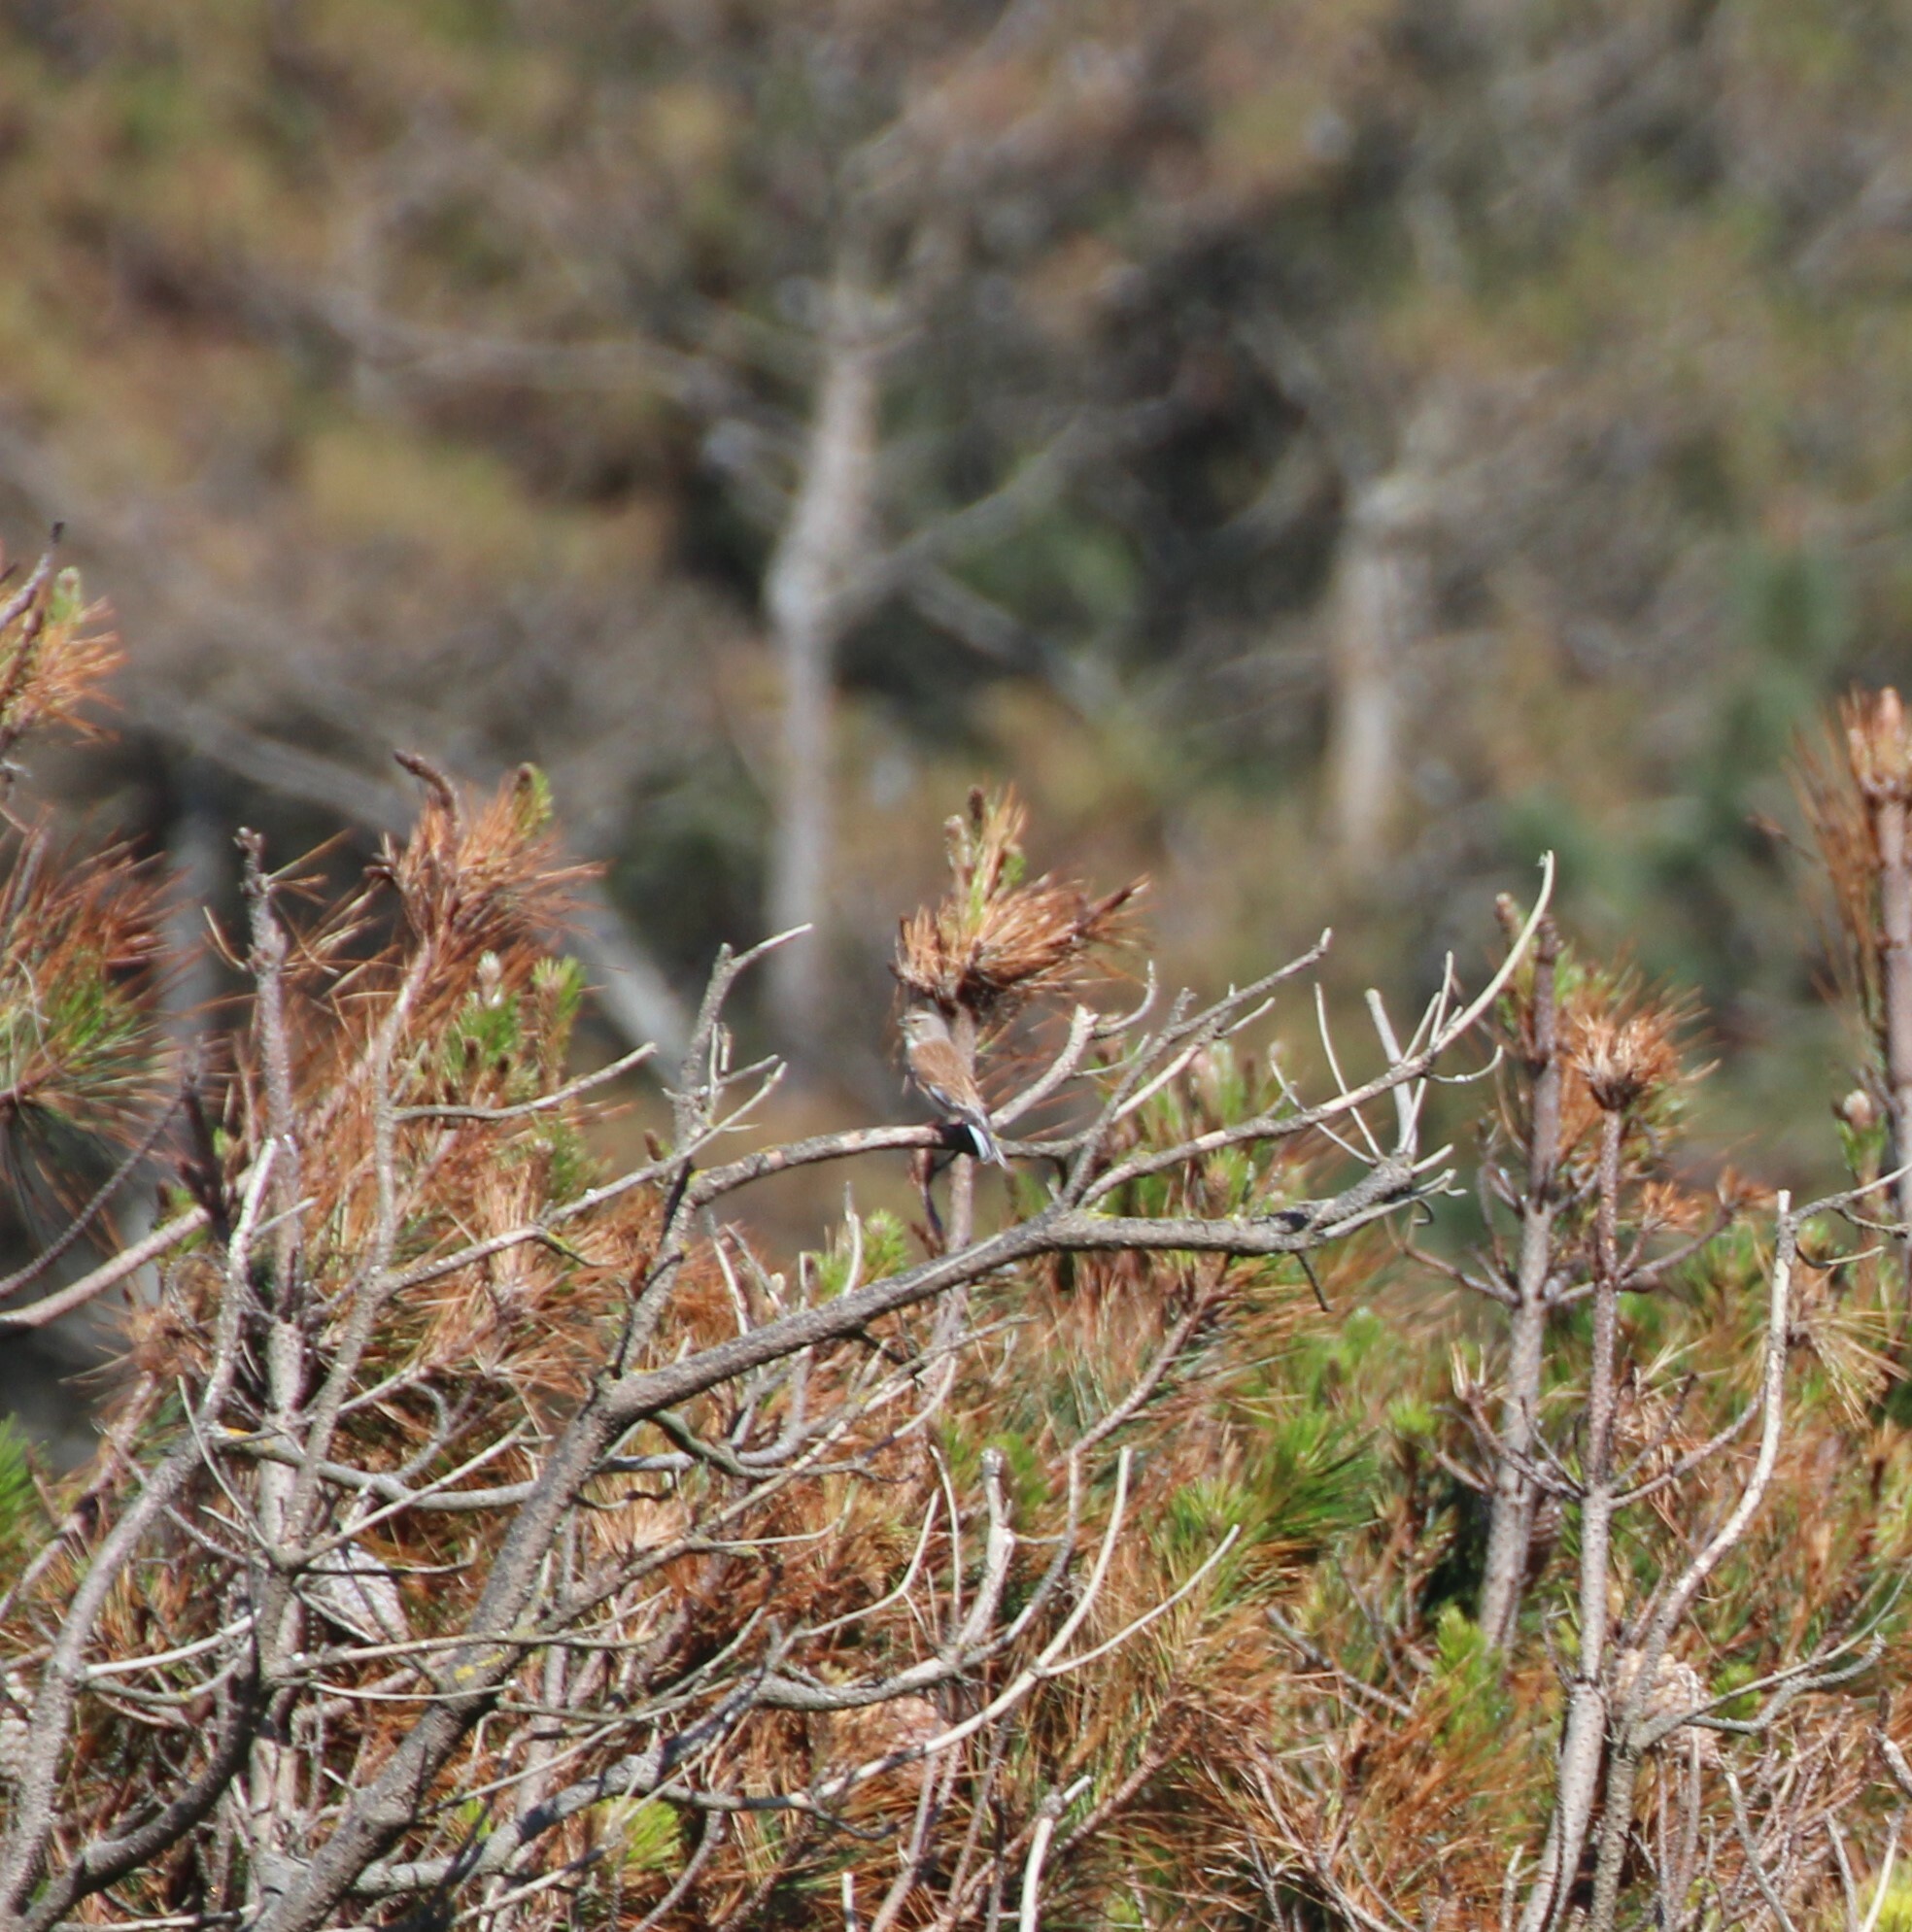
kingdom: Animalia
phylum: Chordata
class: Aves
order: Passeriformes
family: Fringillidae
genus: Linaria
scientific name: Linaria cannabina
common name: Common linnet
